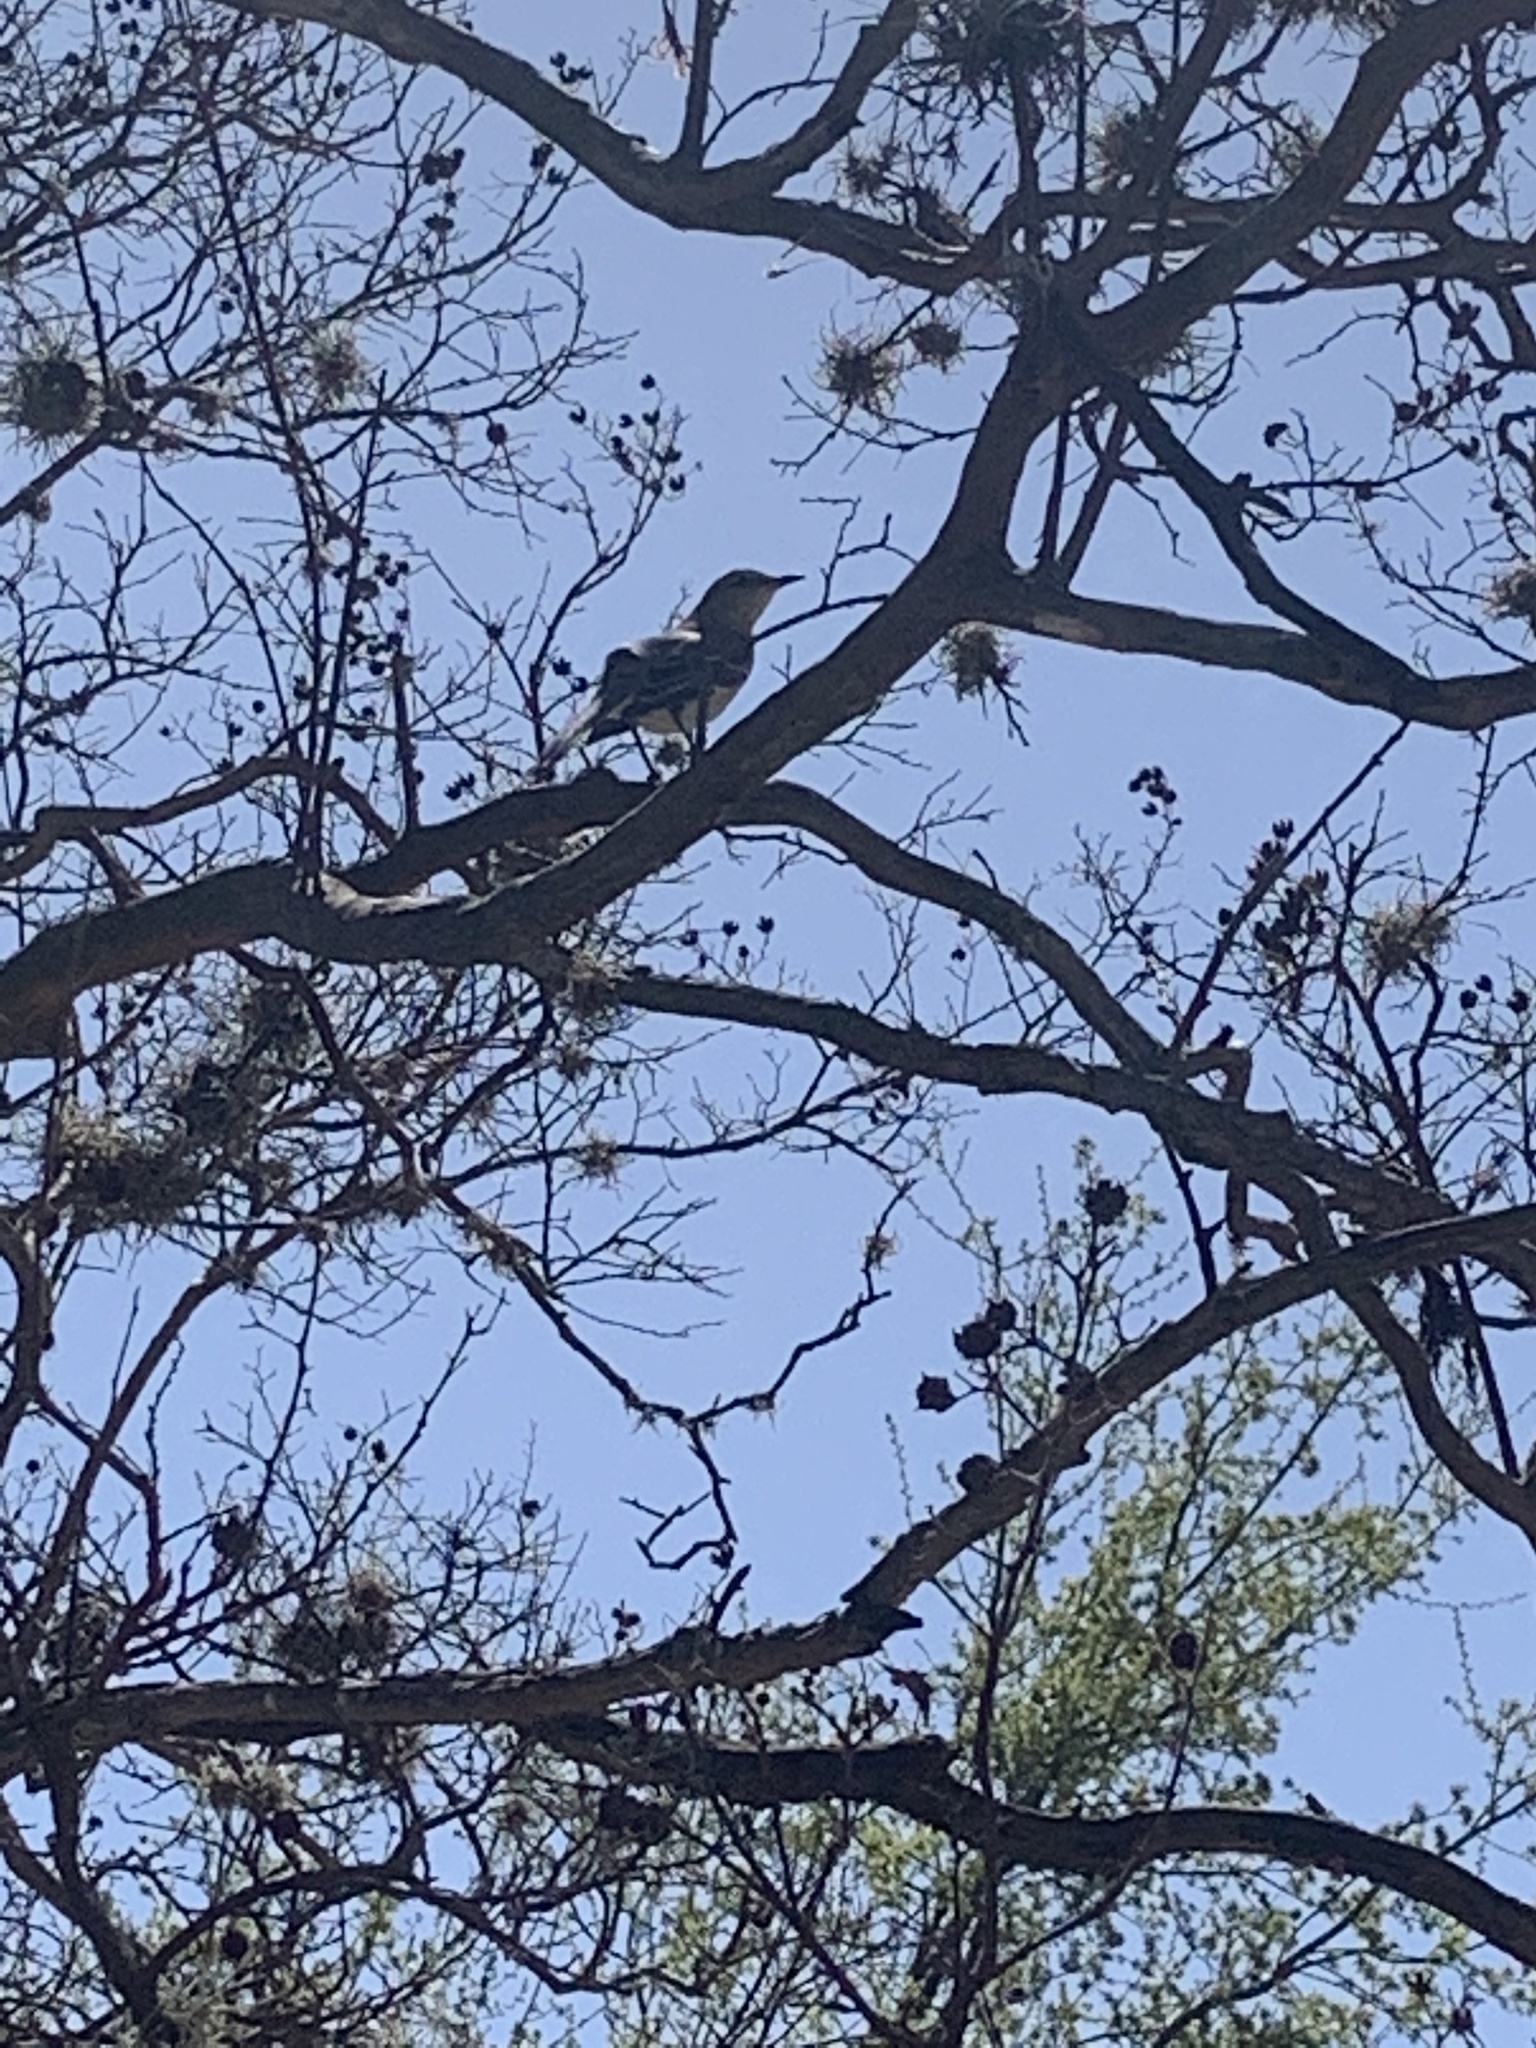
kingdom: Animalia
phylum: Chordata
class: Aves
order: Passeriformes
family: Mimidae
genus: Mimus
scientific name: Mimus polyglottos
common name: Northern mockingbird
